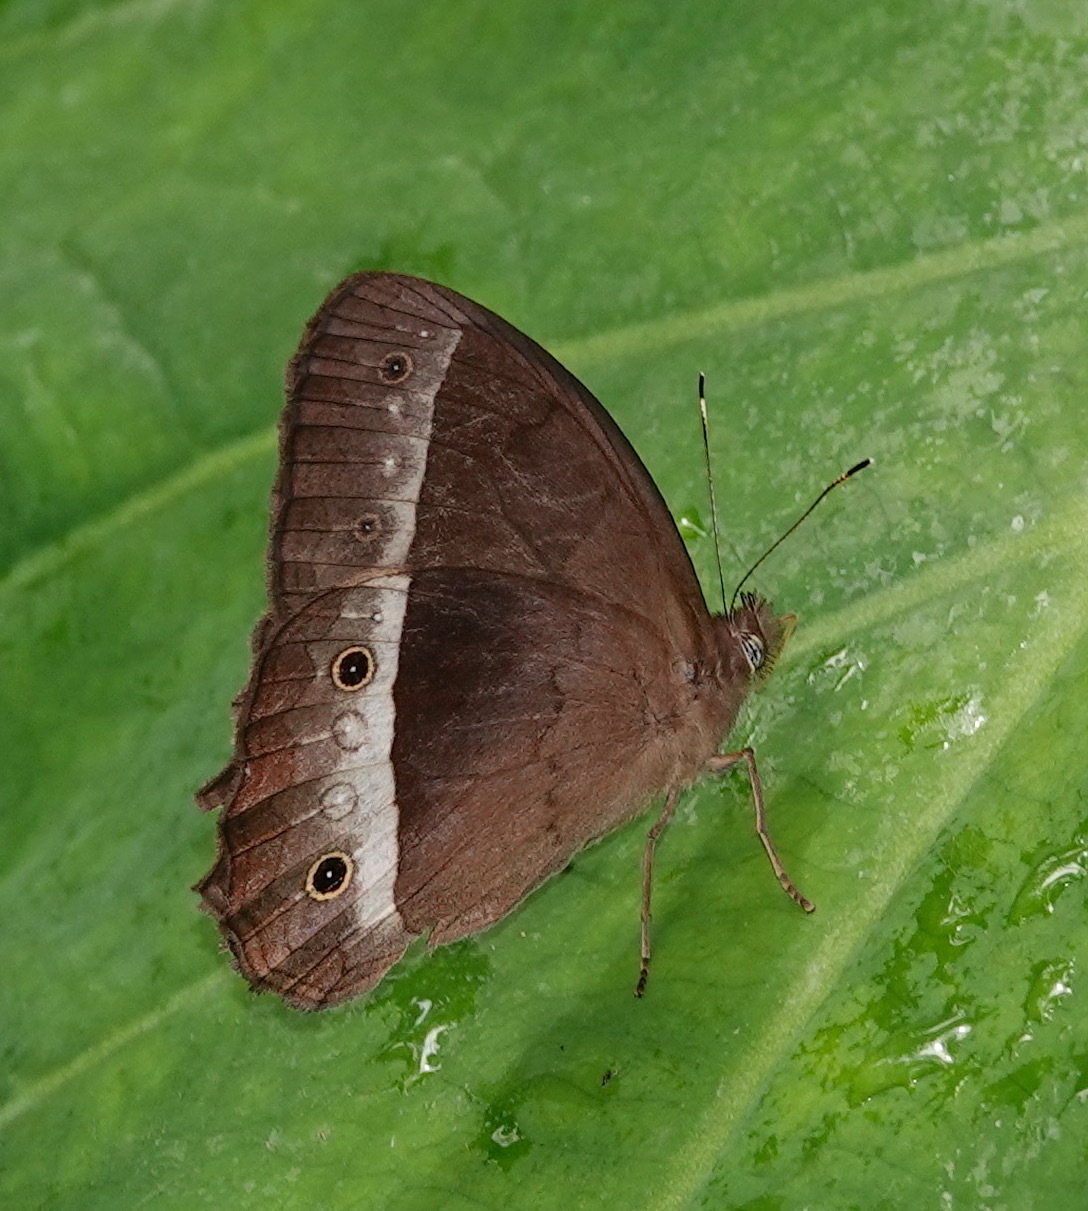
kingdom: Animalia
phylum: Arthropoda
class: Insecta
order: Lepidoptera
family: Nymphalidae
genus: Harjesia
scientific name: Harjesia blanda
